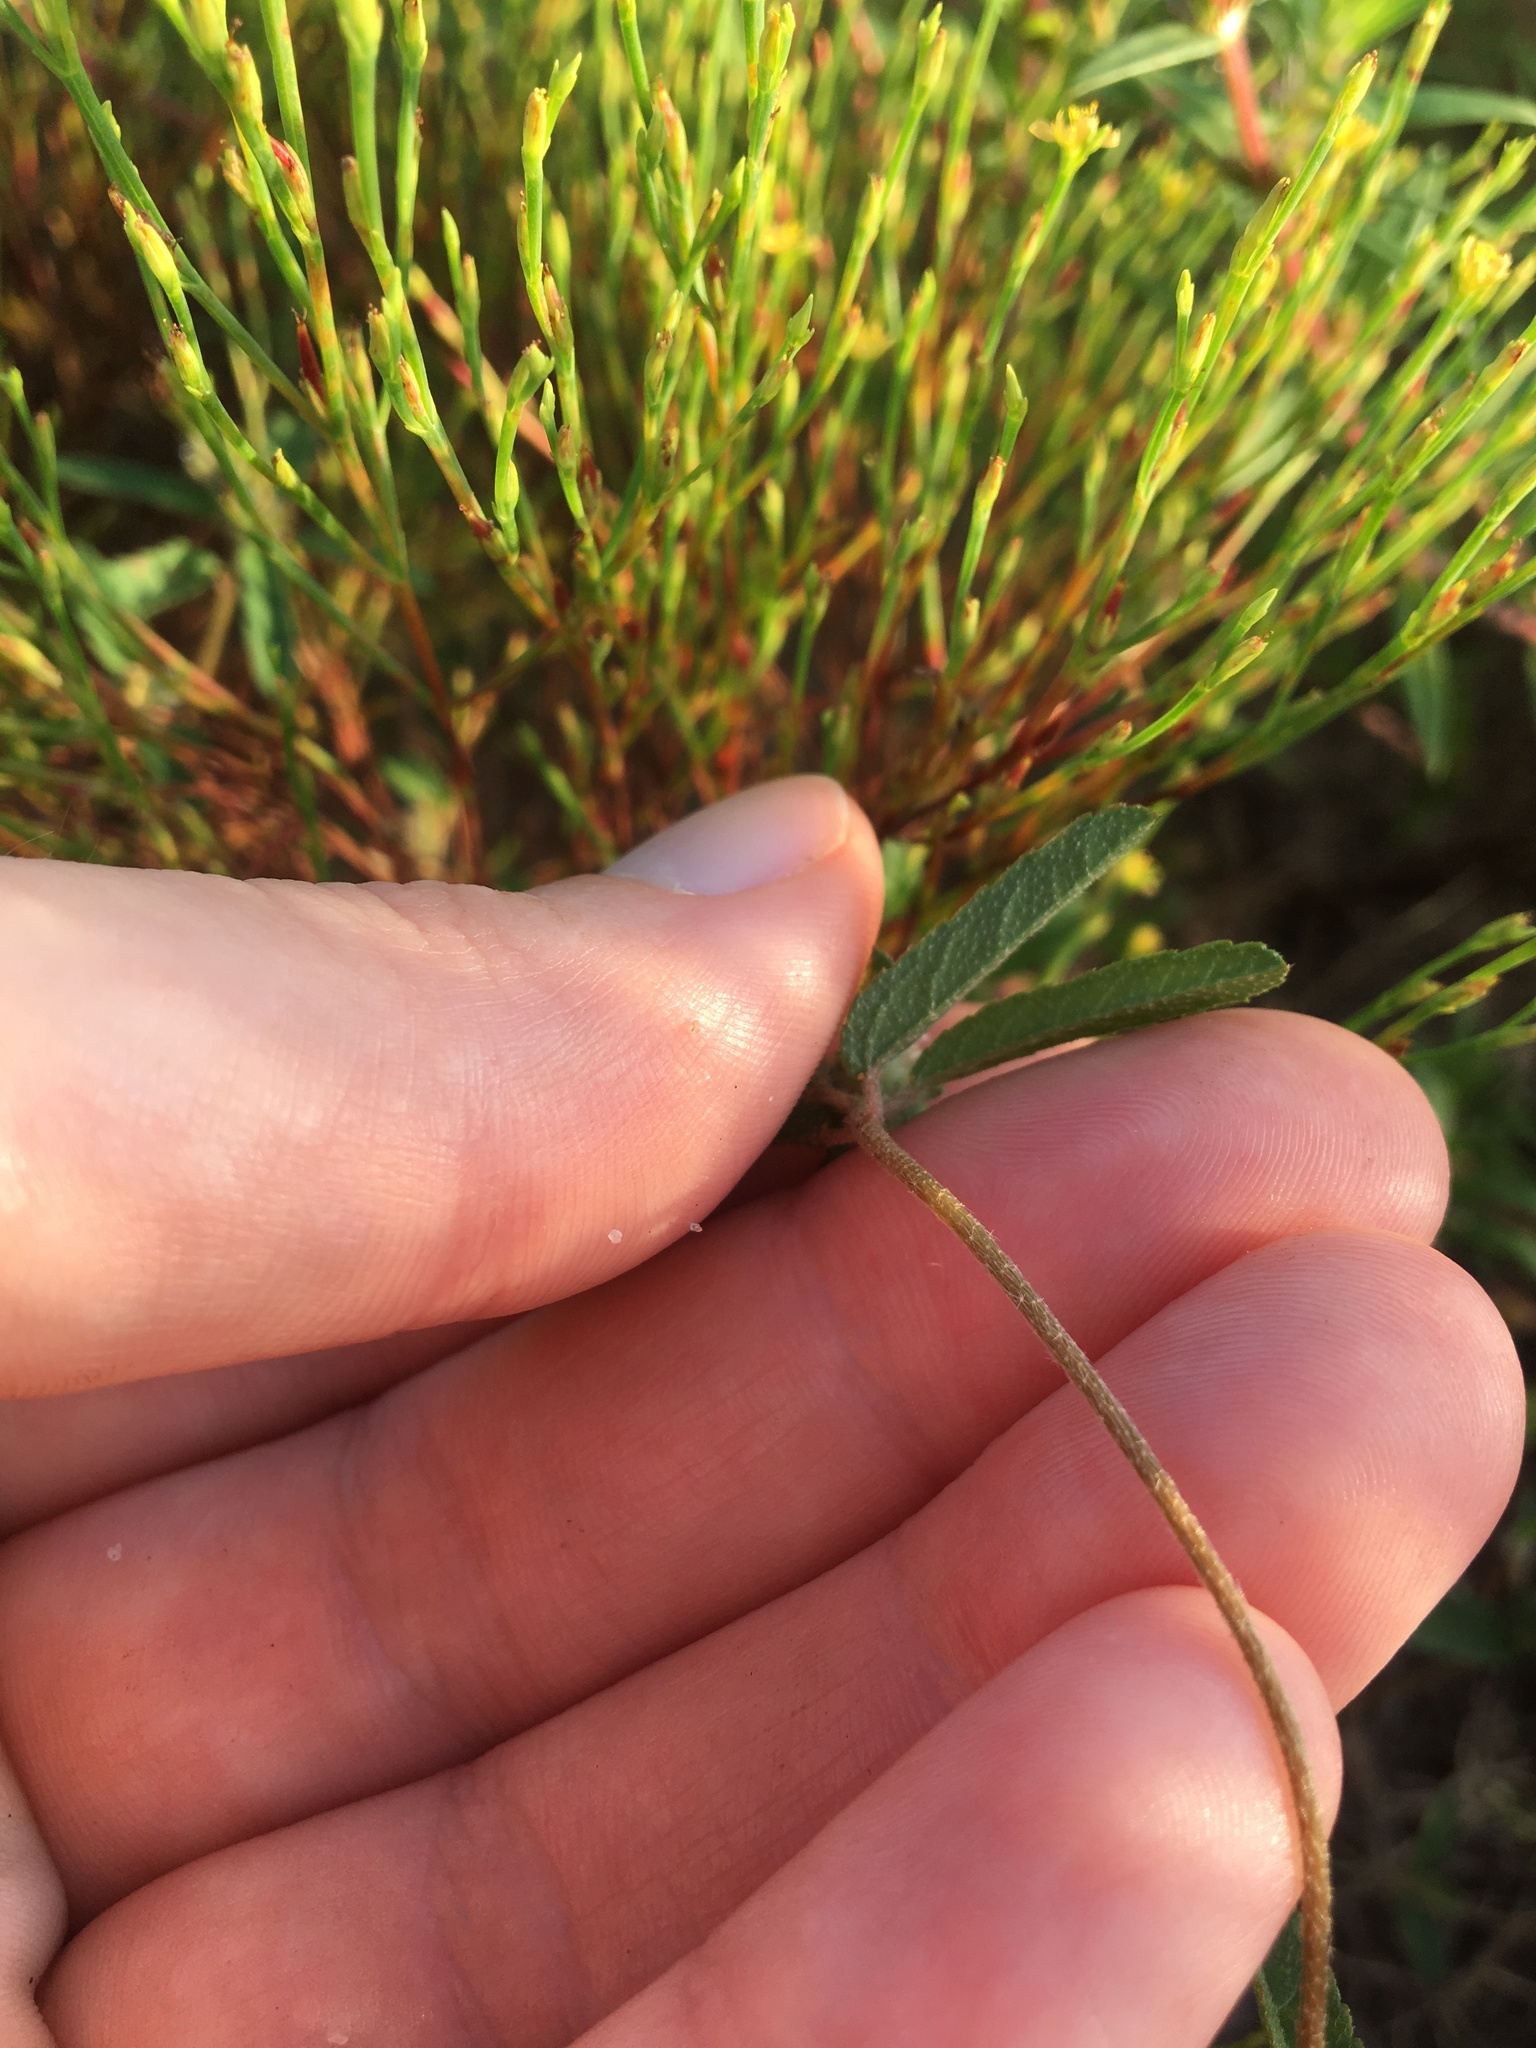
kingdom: Plantae
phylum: Tracheophyta
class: Magnoliopsida
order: Malpighiales
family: Euphorbiaceae
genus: Croton
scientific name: Croton glandulosus
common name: Tropic croton
